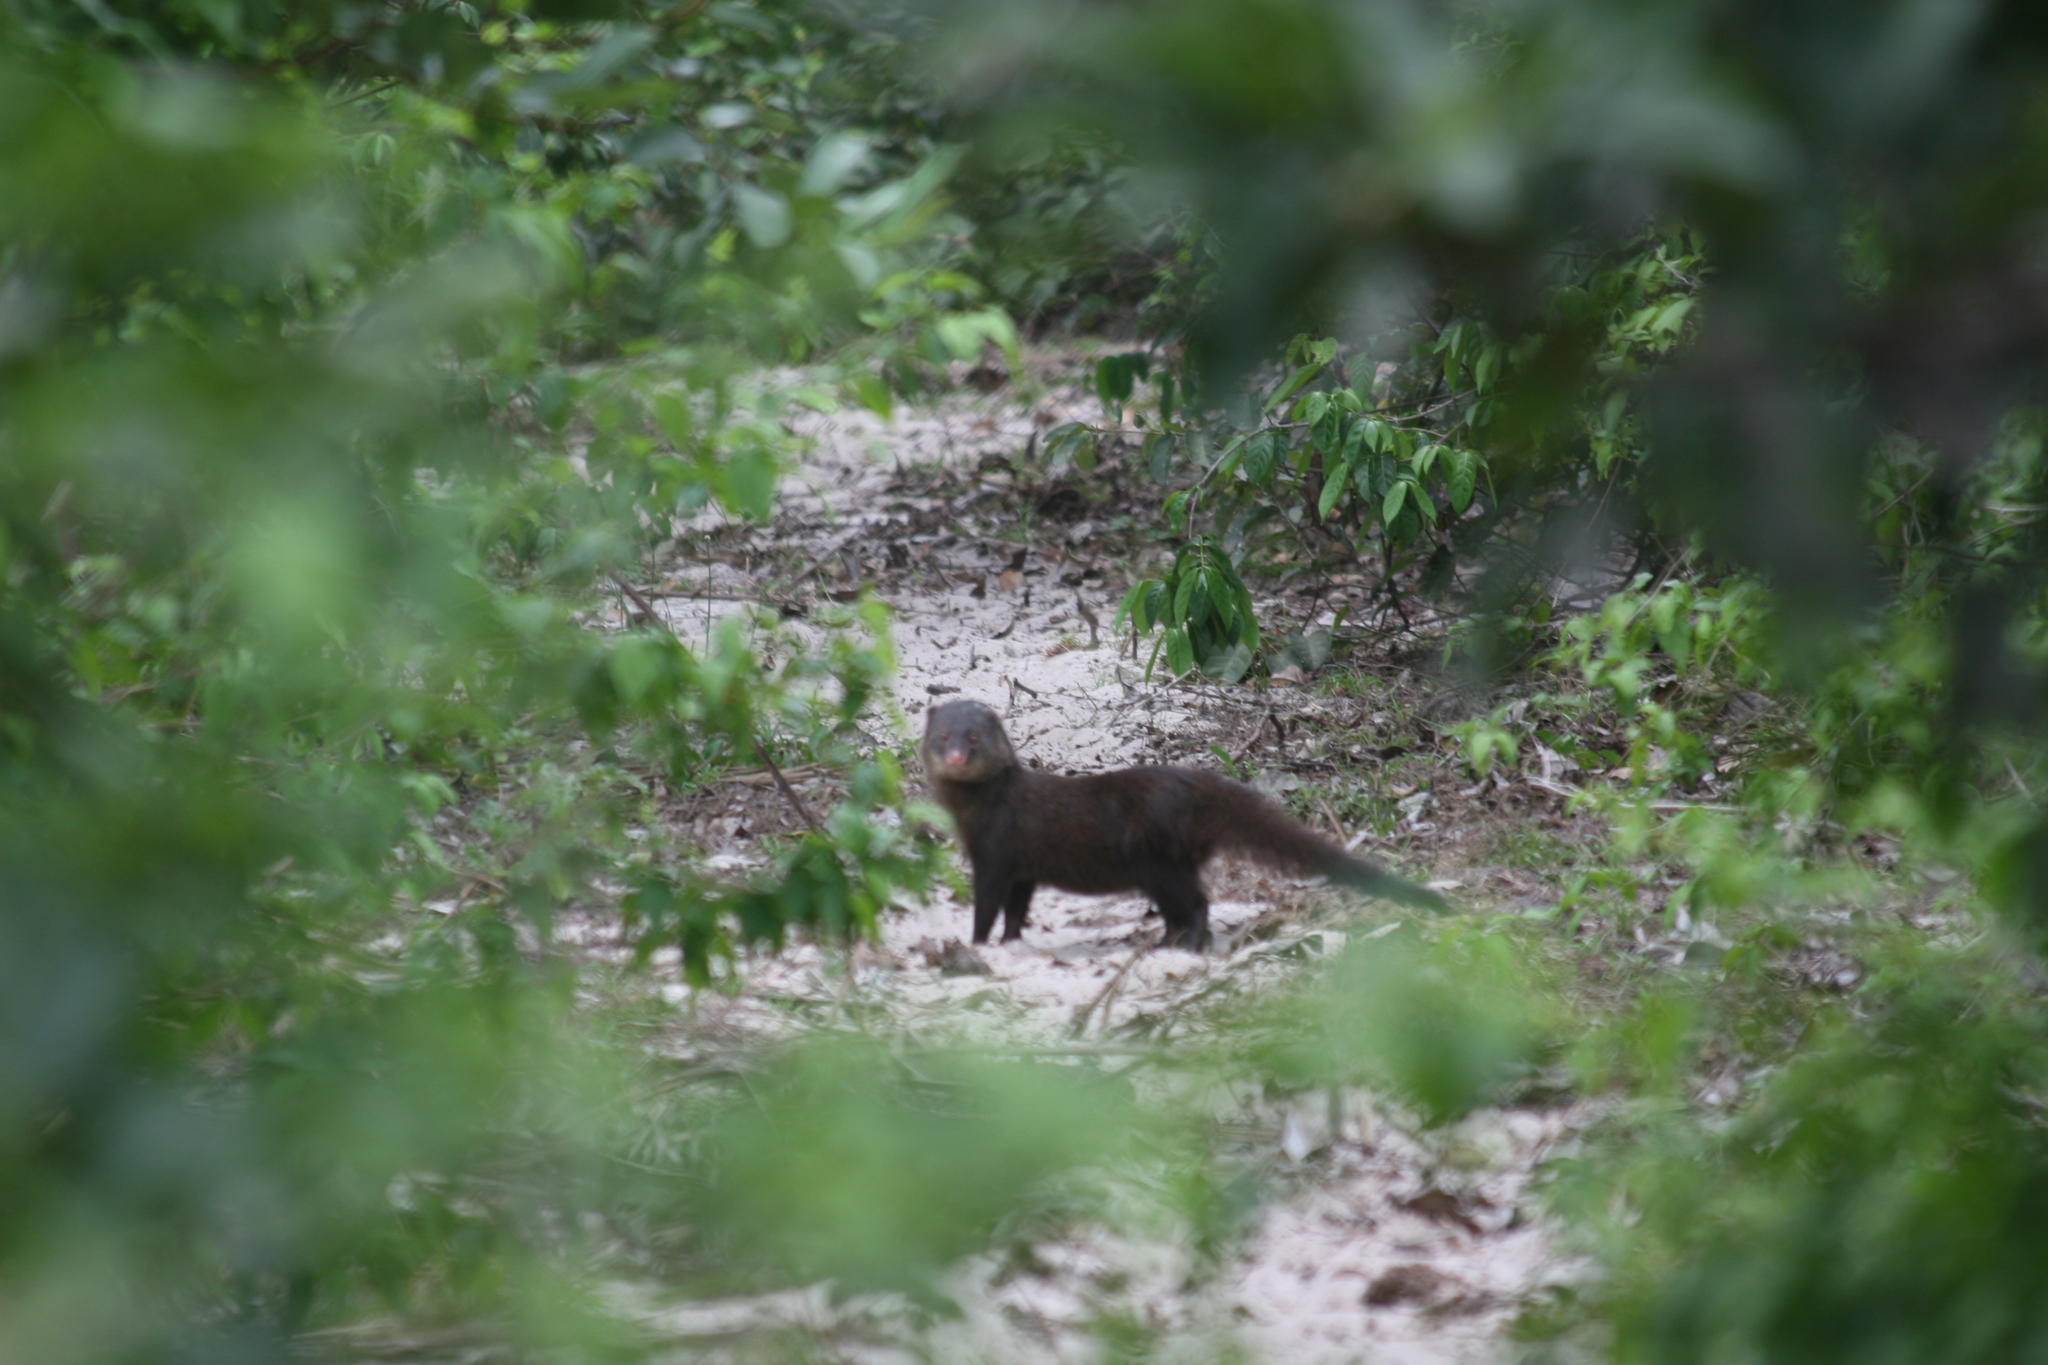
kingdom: Animalia
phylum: Chordata
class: Mammalia
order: Carnivora
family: Herpestidae
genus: Atilax
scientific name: Atilax paludinosus
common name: Marsh mongoose
